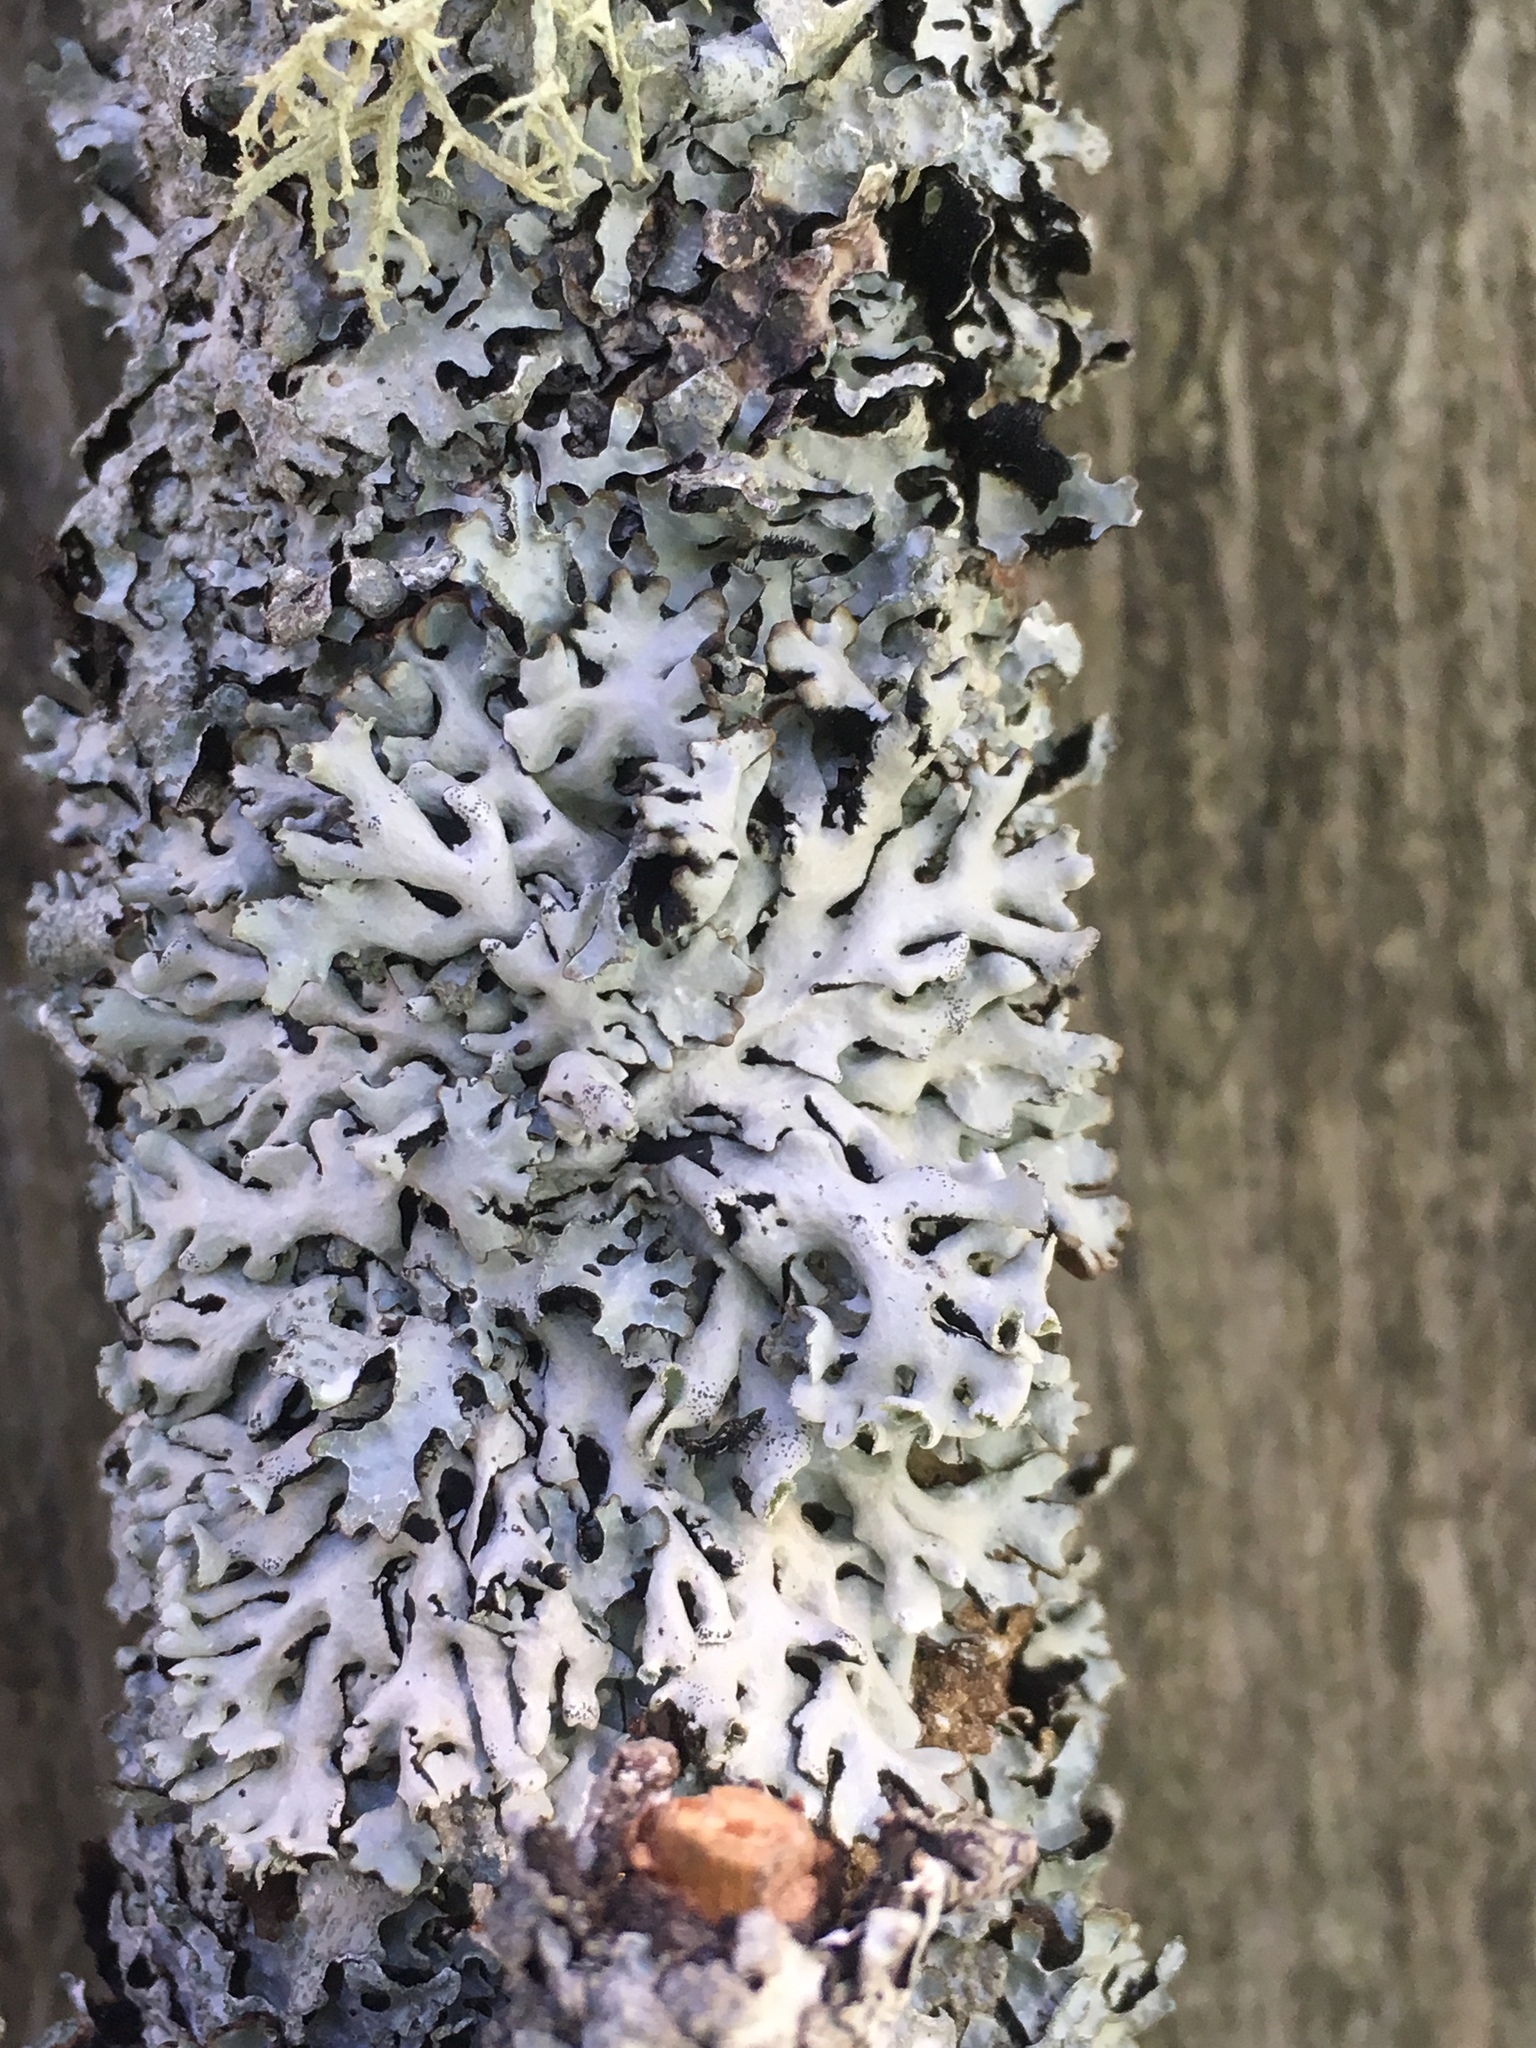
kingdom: Fungi
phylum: Ascomycota
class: Lecanoromycetes
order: Lecanorales
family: Parmeliaceae
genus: Hypogymnia
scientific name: Hypogymnia physodes
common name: Dark crottle
